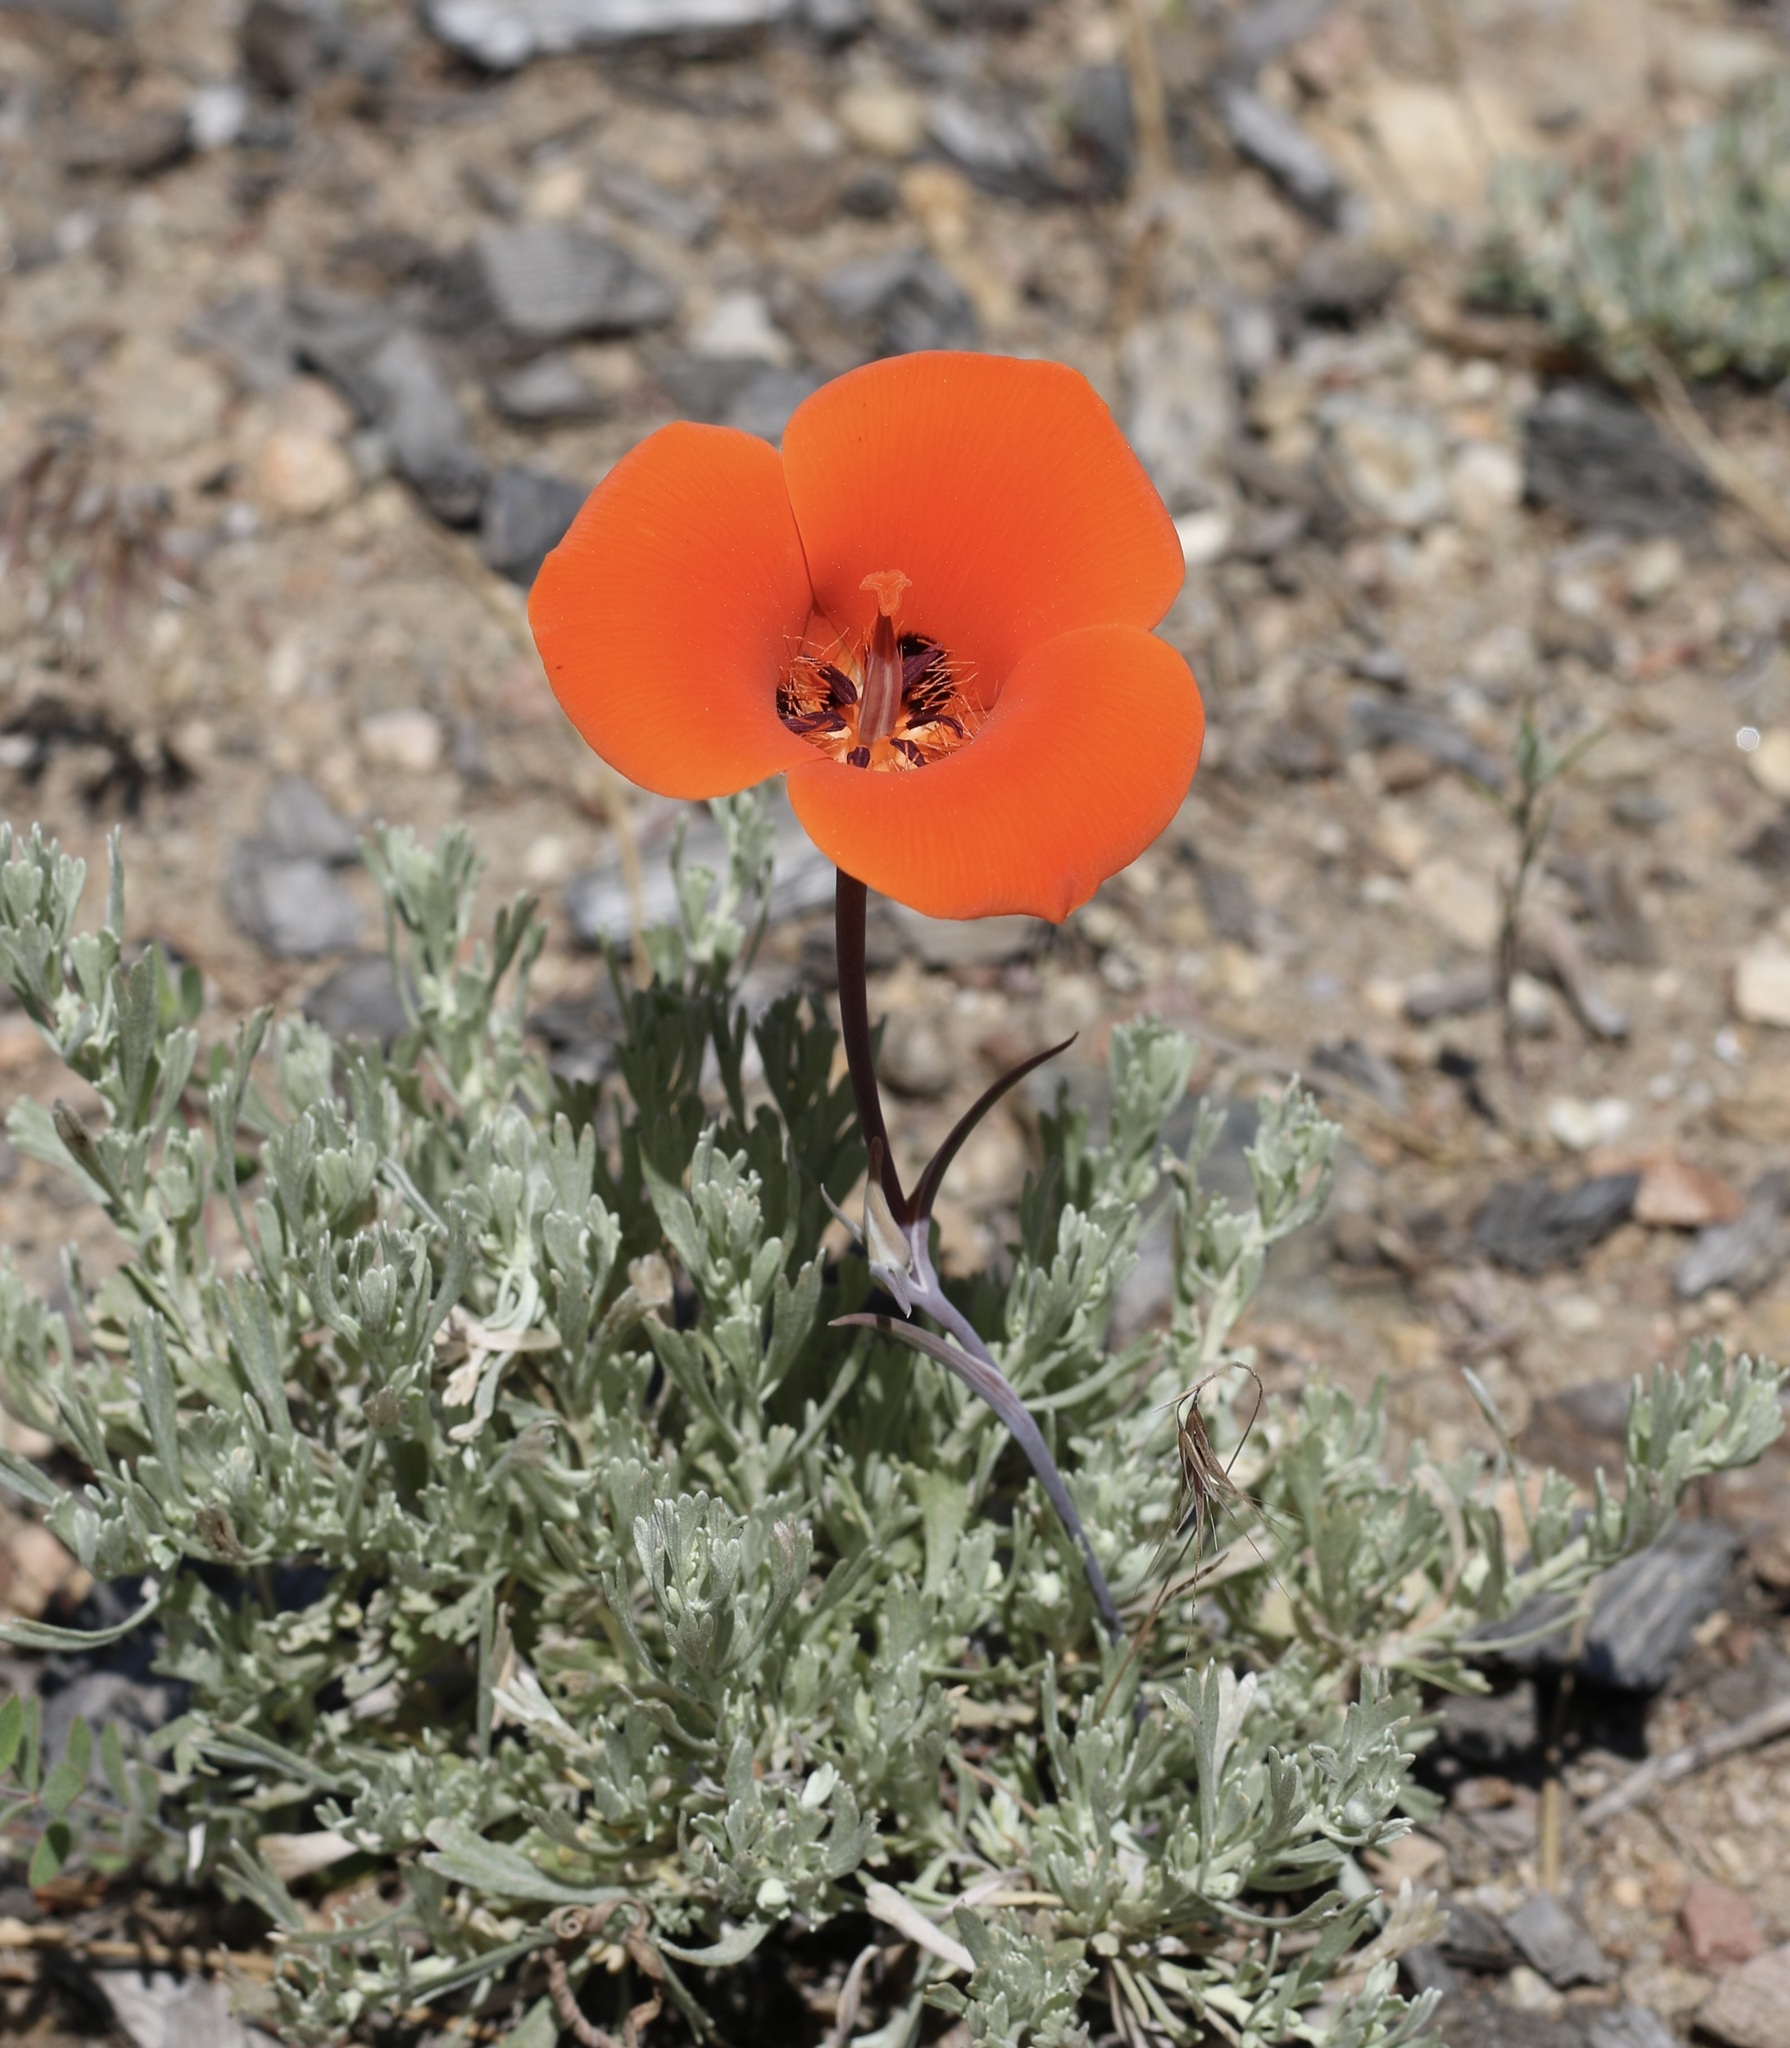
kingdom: Plantae
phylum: Tracheophyta
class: Liliopsida
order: Liliales
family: Liliaceae
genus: Calochortus
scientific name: Calochortus kennedyi
